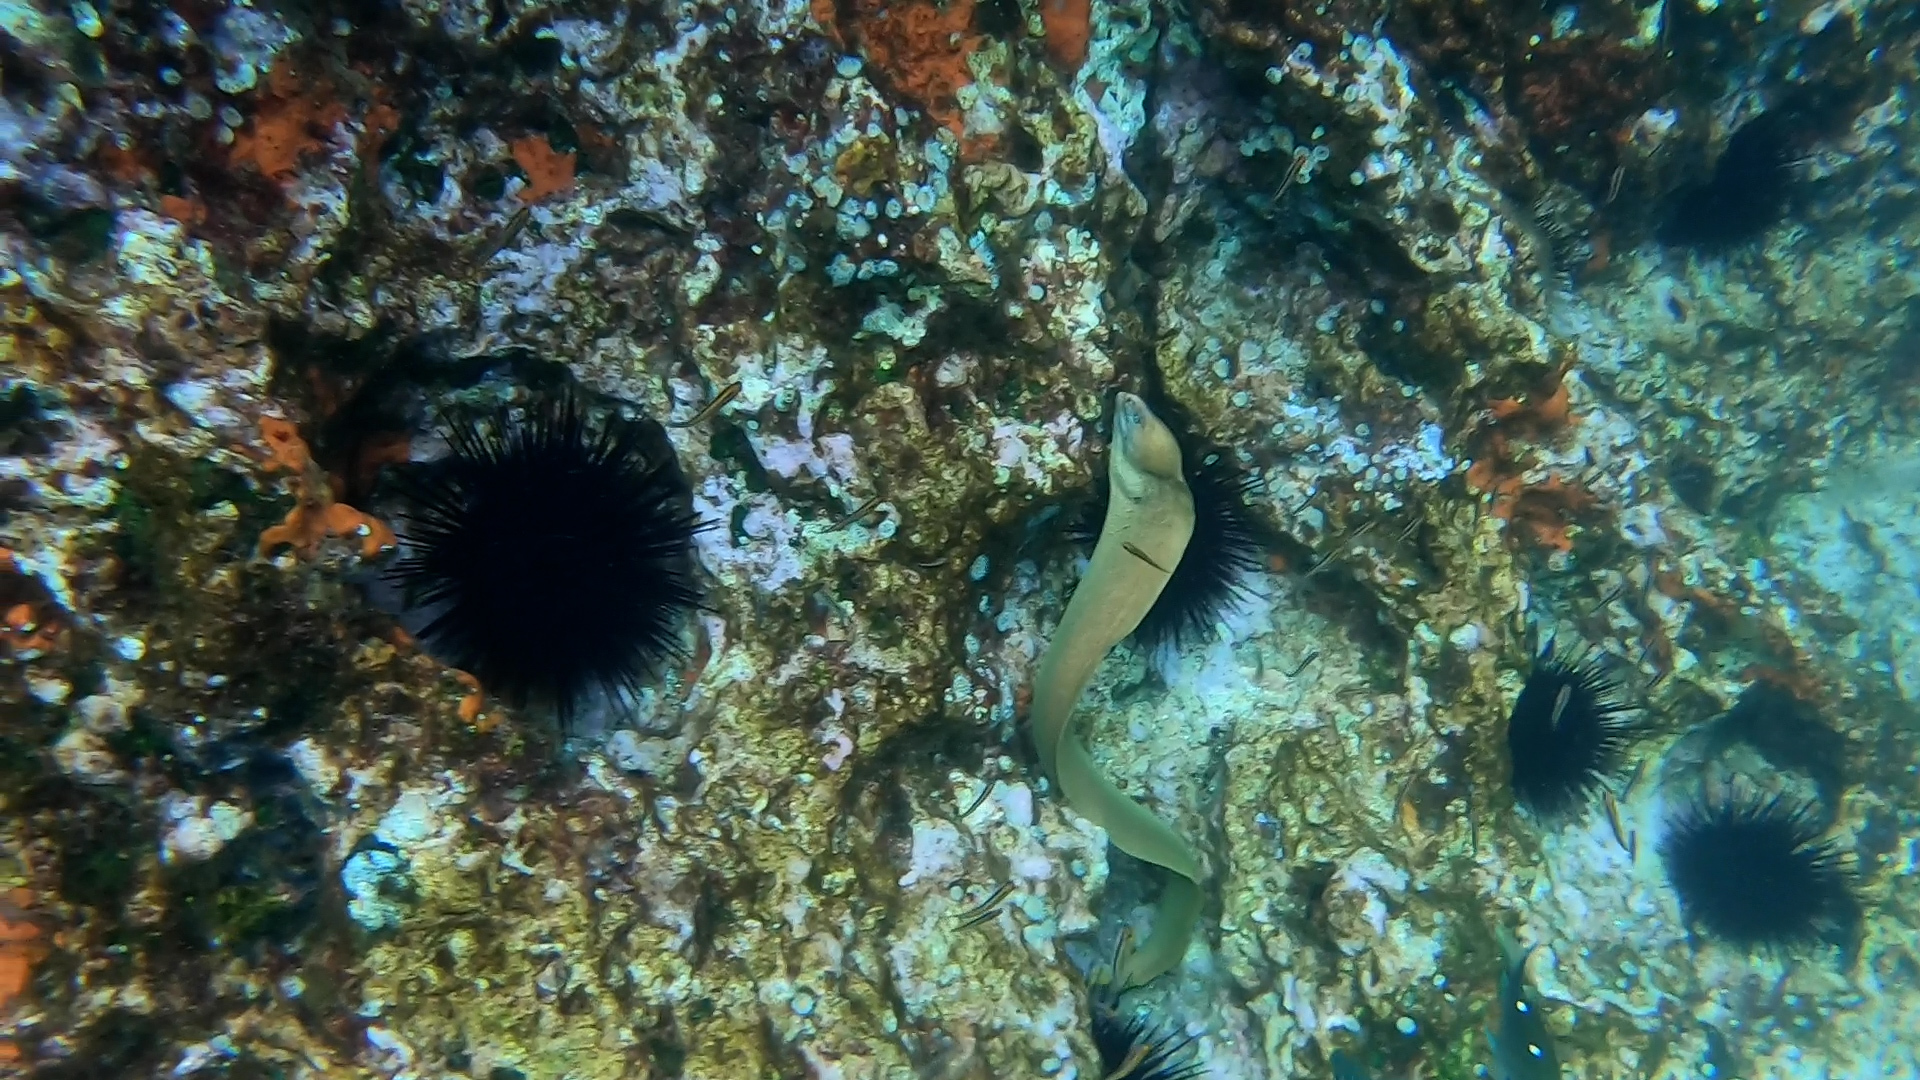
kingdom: Animalia
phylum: Chordata
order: Anguilliformes
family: Muraenidae
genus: Gymnothorax
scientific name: Gymnothorax prasinus
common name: Yellow moray
